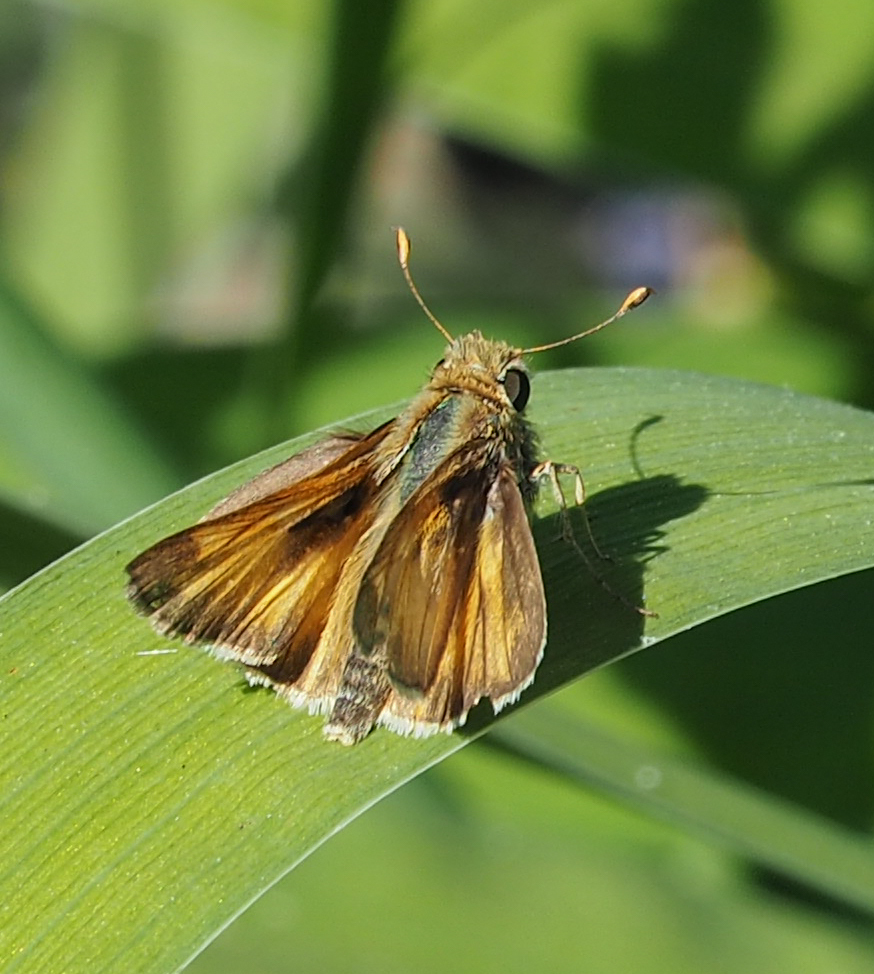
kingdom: Animalia
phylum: Arthropoda
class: Insecta
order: Lepidoptera
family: Hesperiidae
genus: Atalopedes
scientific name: Atalopedes
